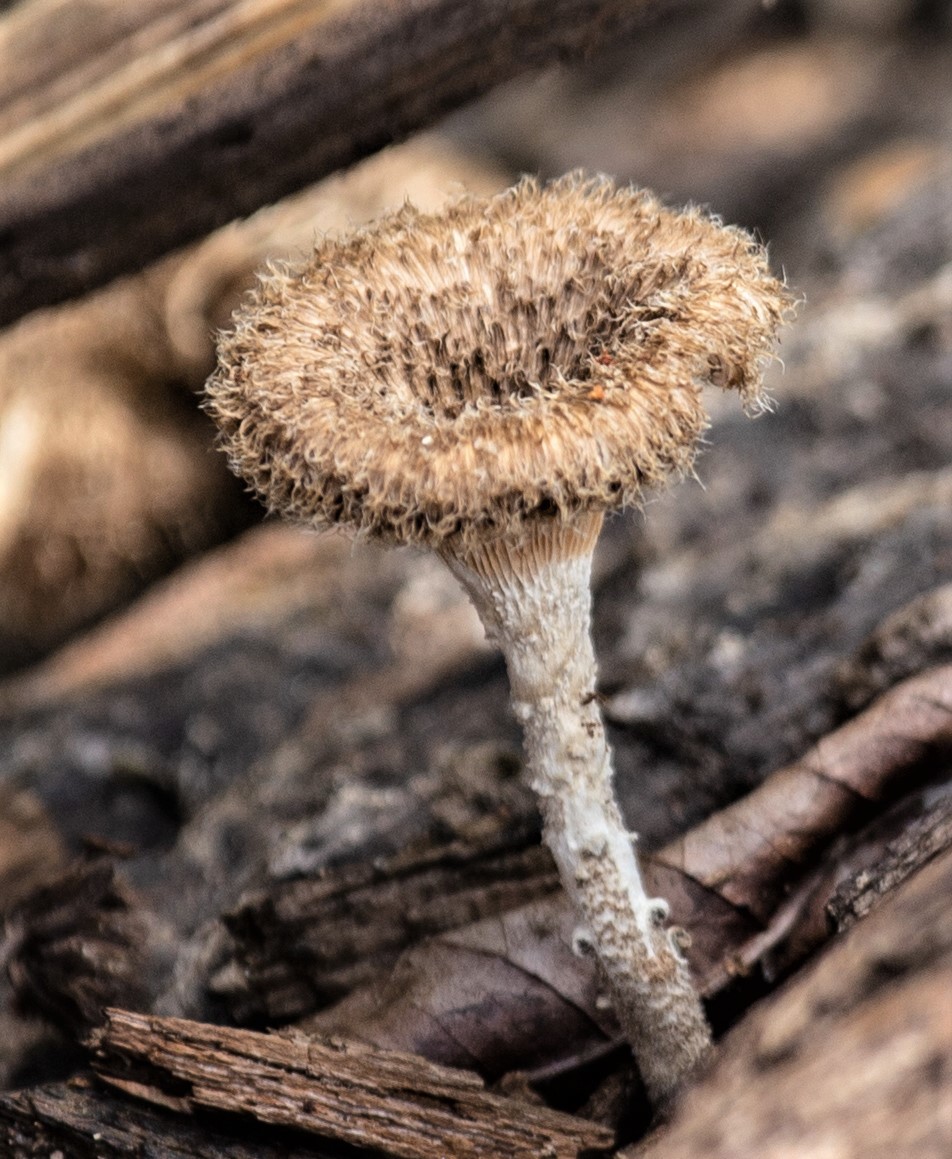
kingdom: Fungi
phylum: Basidiomycota
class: Agaricomycetes
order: Polyporales
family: Polyporaceae
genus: Lentinus
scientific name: Lentinus crinitus
